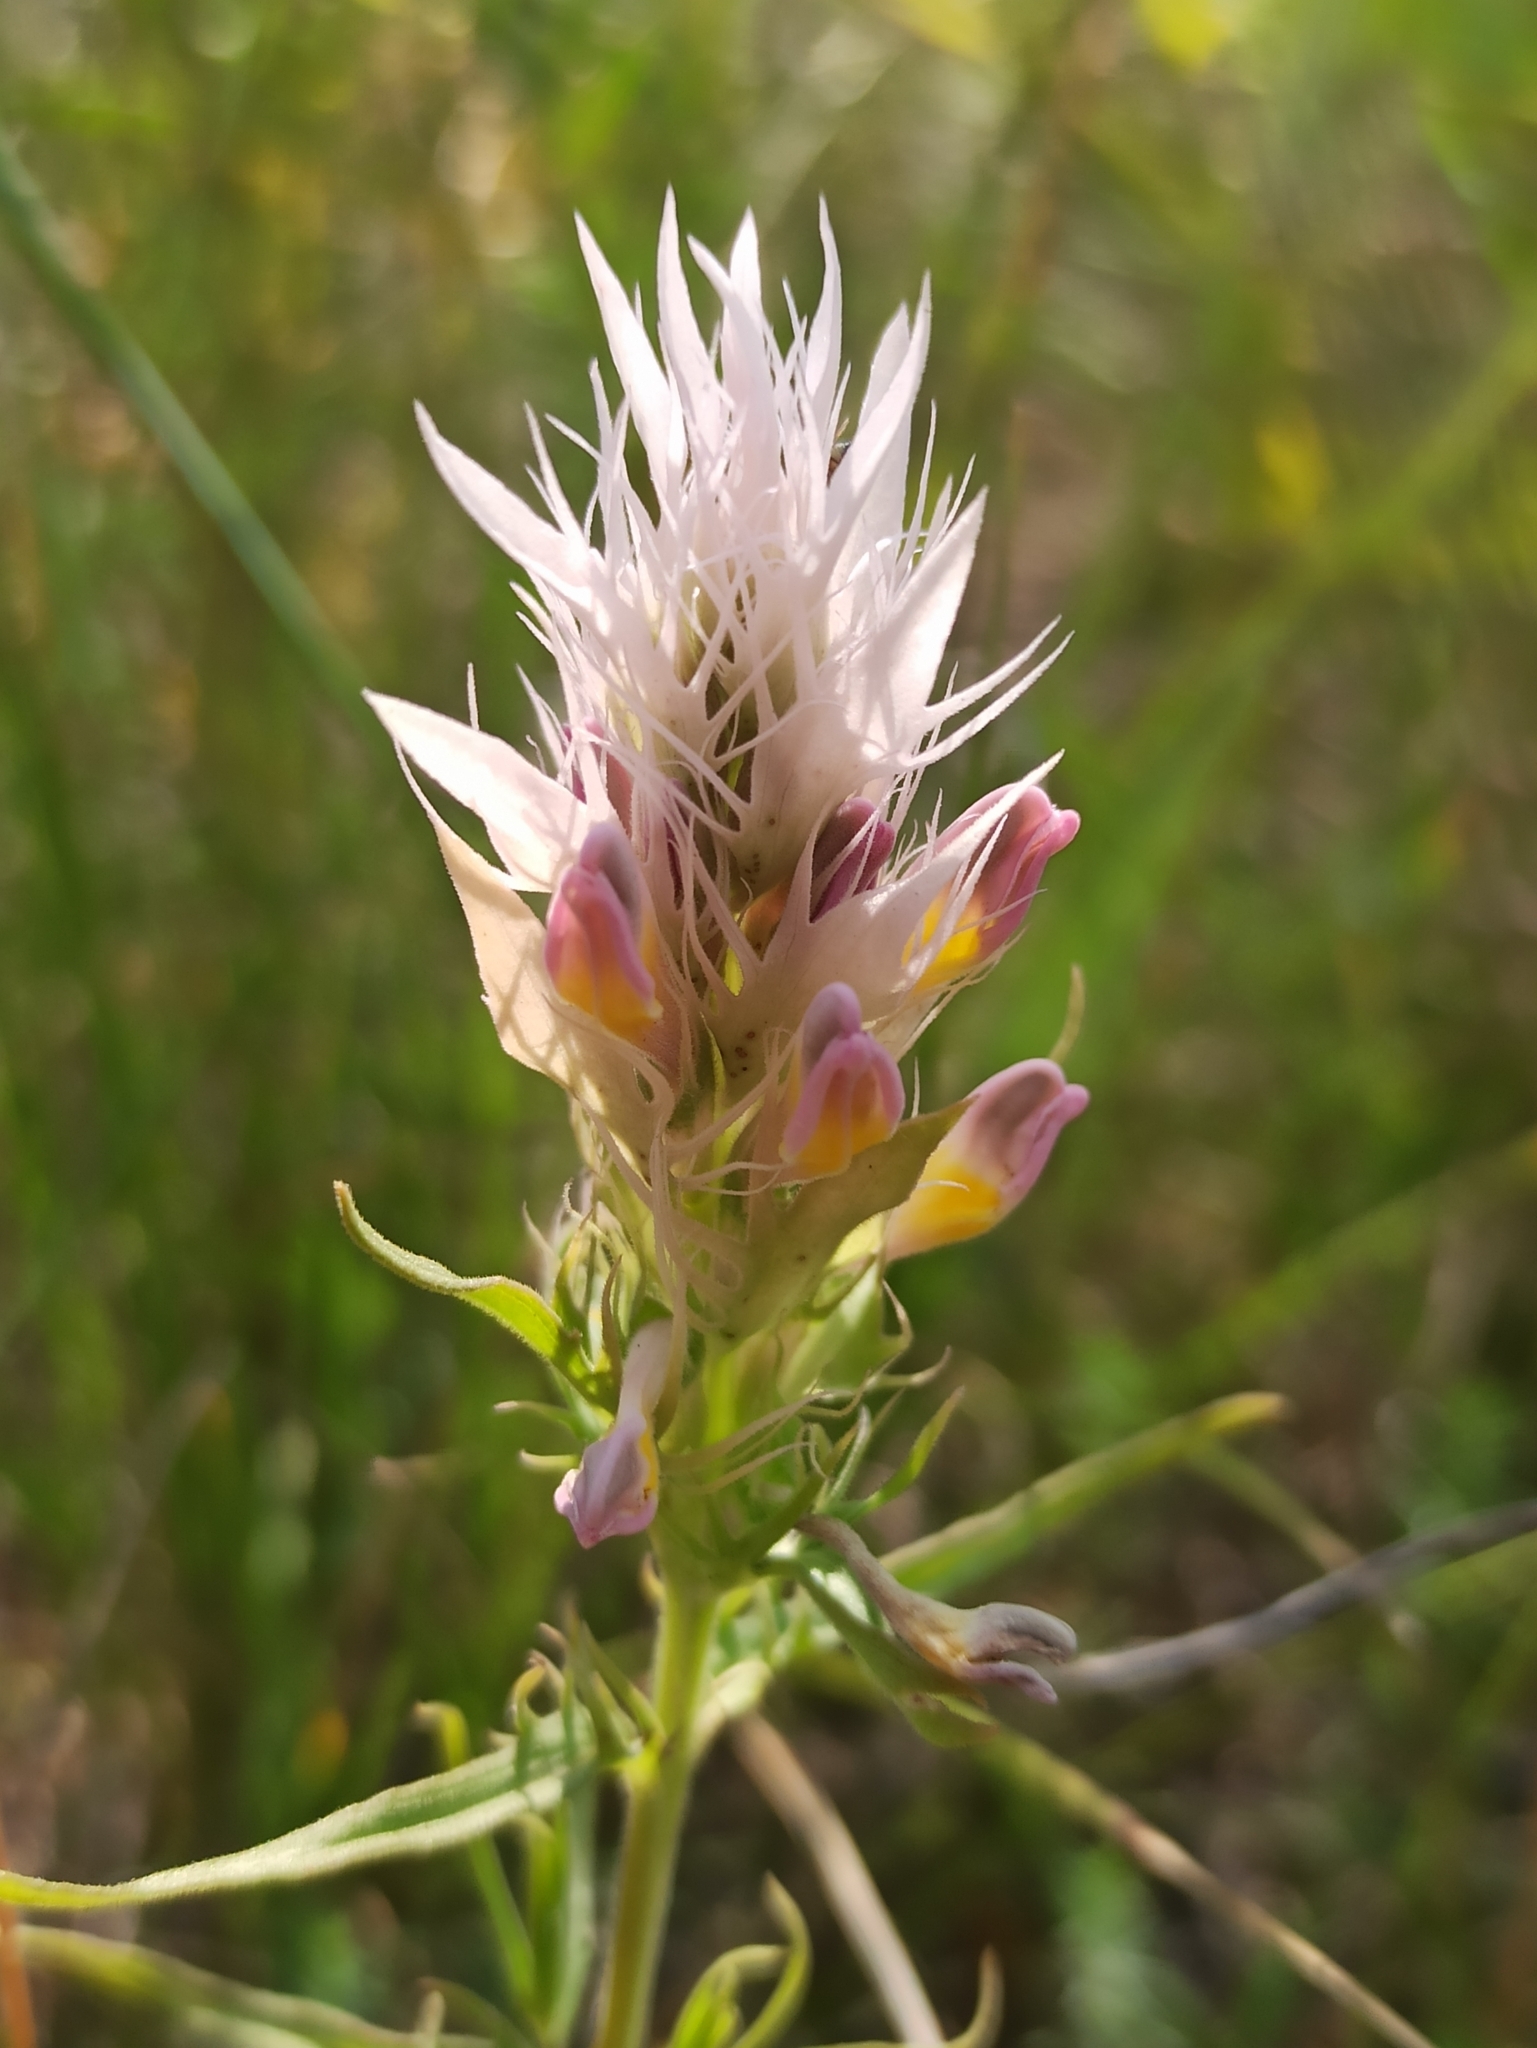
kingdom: Plantae
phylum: Tracheophyta
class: Magnoliopsida
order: Lamiales
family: Orobanchaceae
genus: Melampyrum
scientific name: Melampyrum arvense
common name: Field cow-wheat
